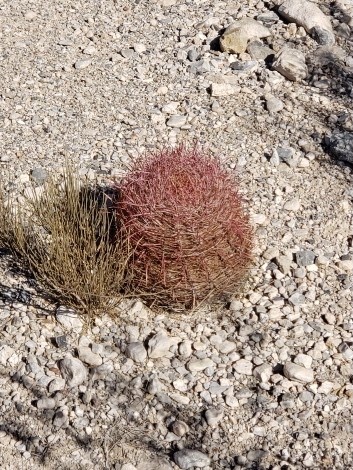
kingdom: Plantae
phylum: Tracheophyta
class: Magnoliopsida
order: Caryophyllales
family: Cactaceae
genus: Ferocactus
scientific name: Ferocactus cylindraceus
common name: California barrel cactus
